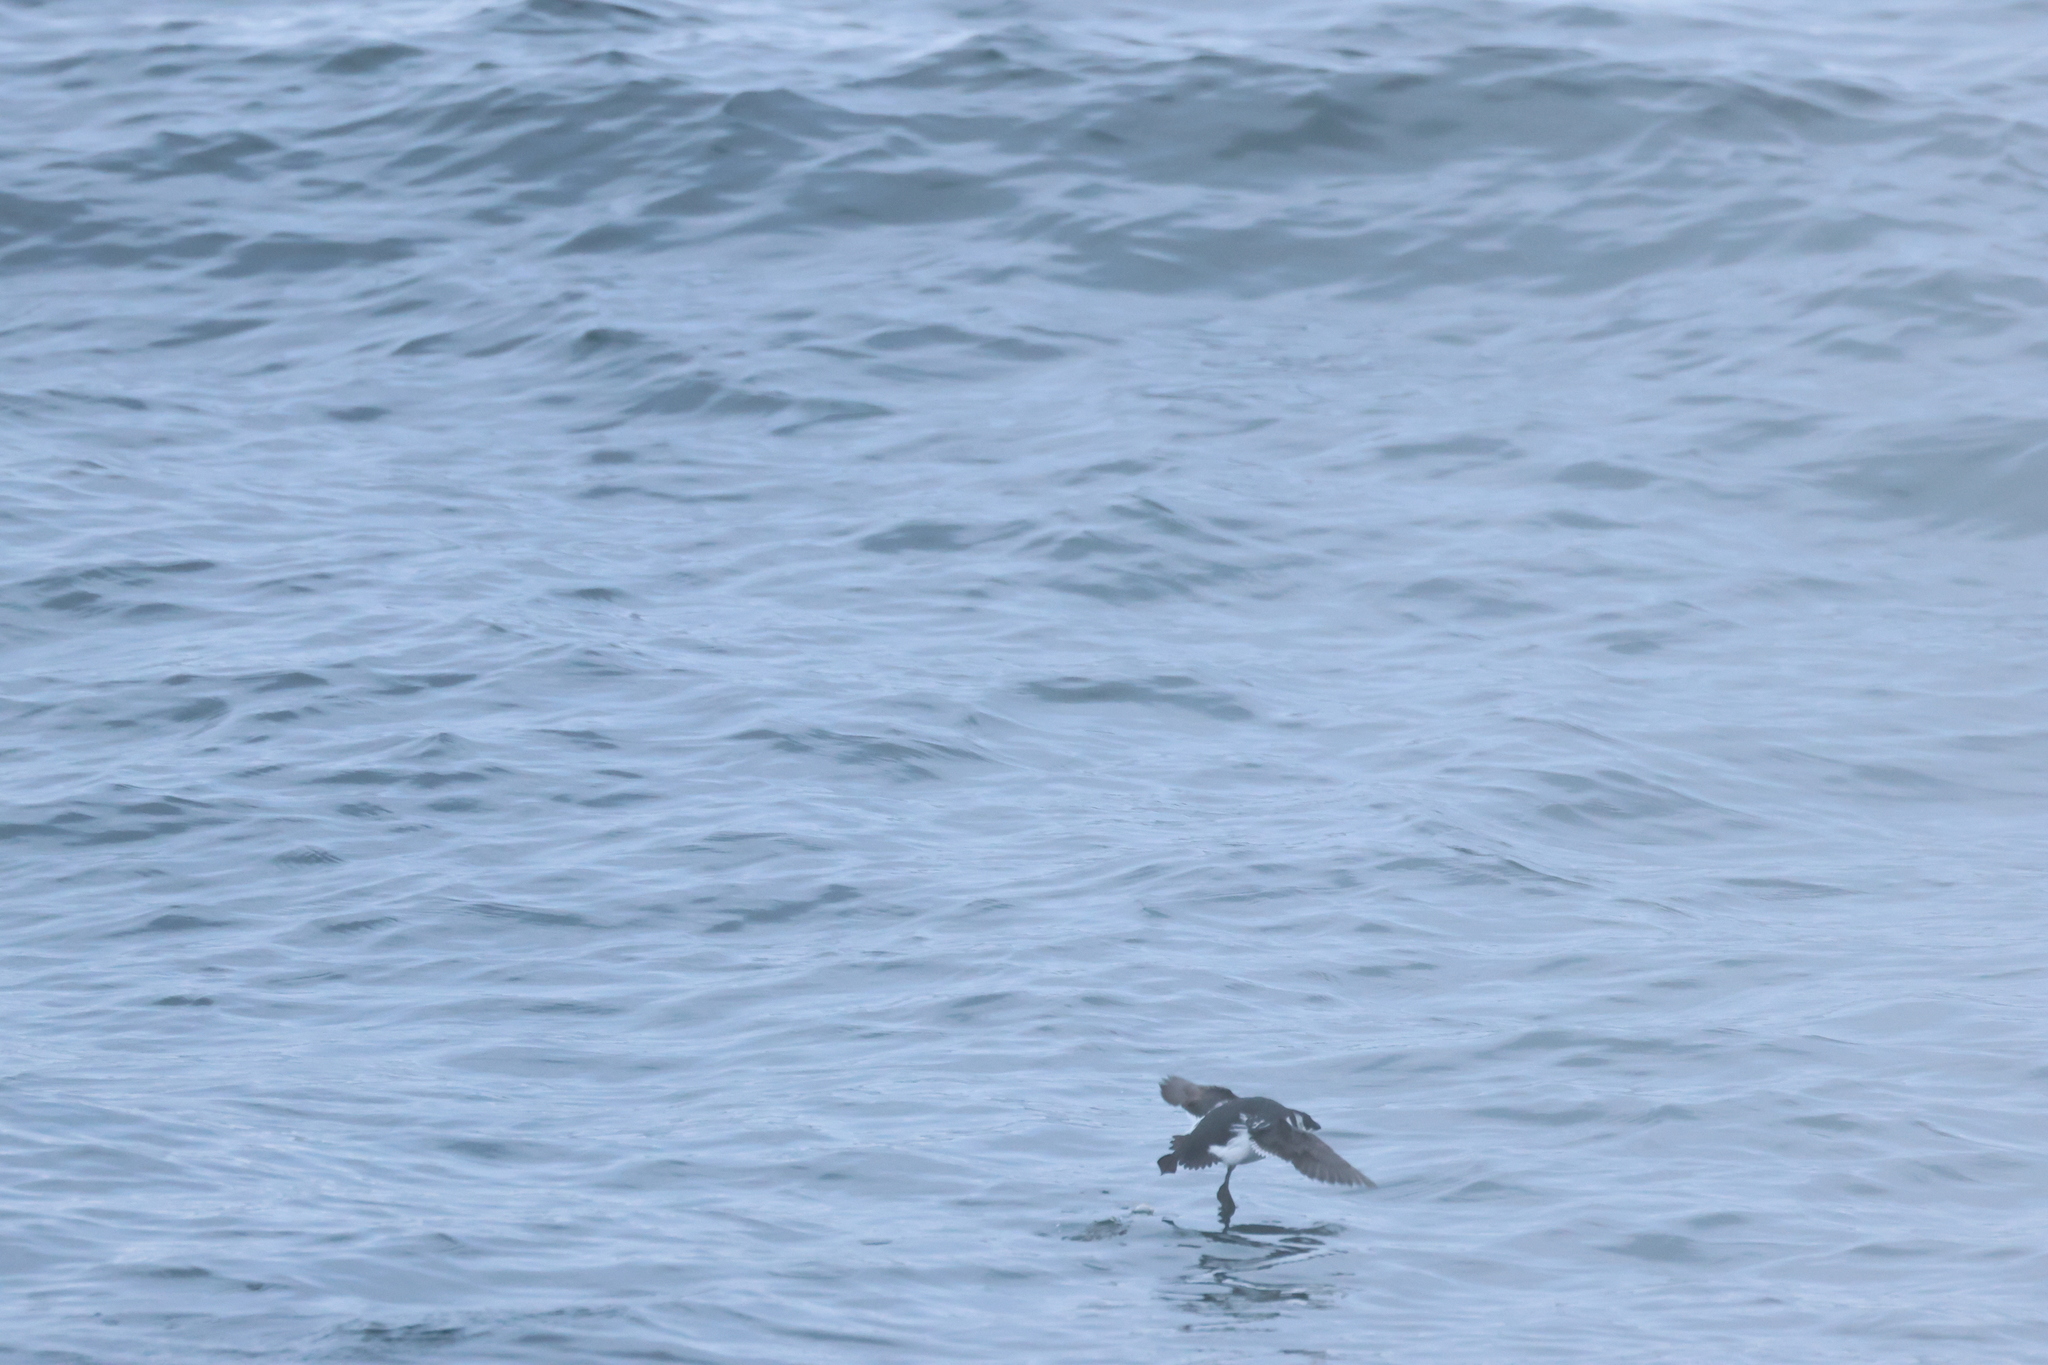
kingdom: Animalia
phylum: Chordata
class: Aves
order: Charadriiformes
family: Alcidae
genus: Alle
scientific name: Alle alle
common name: Little auk
